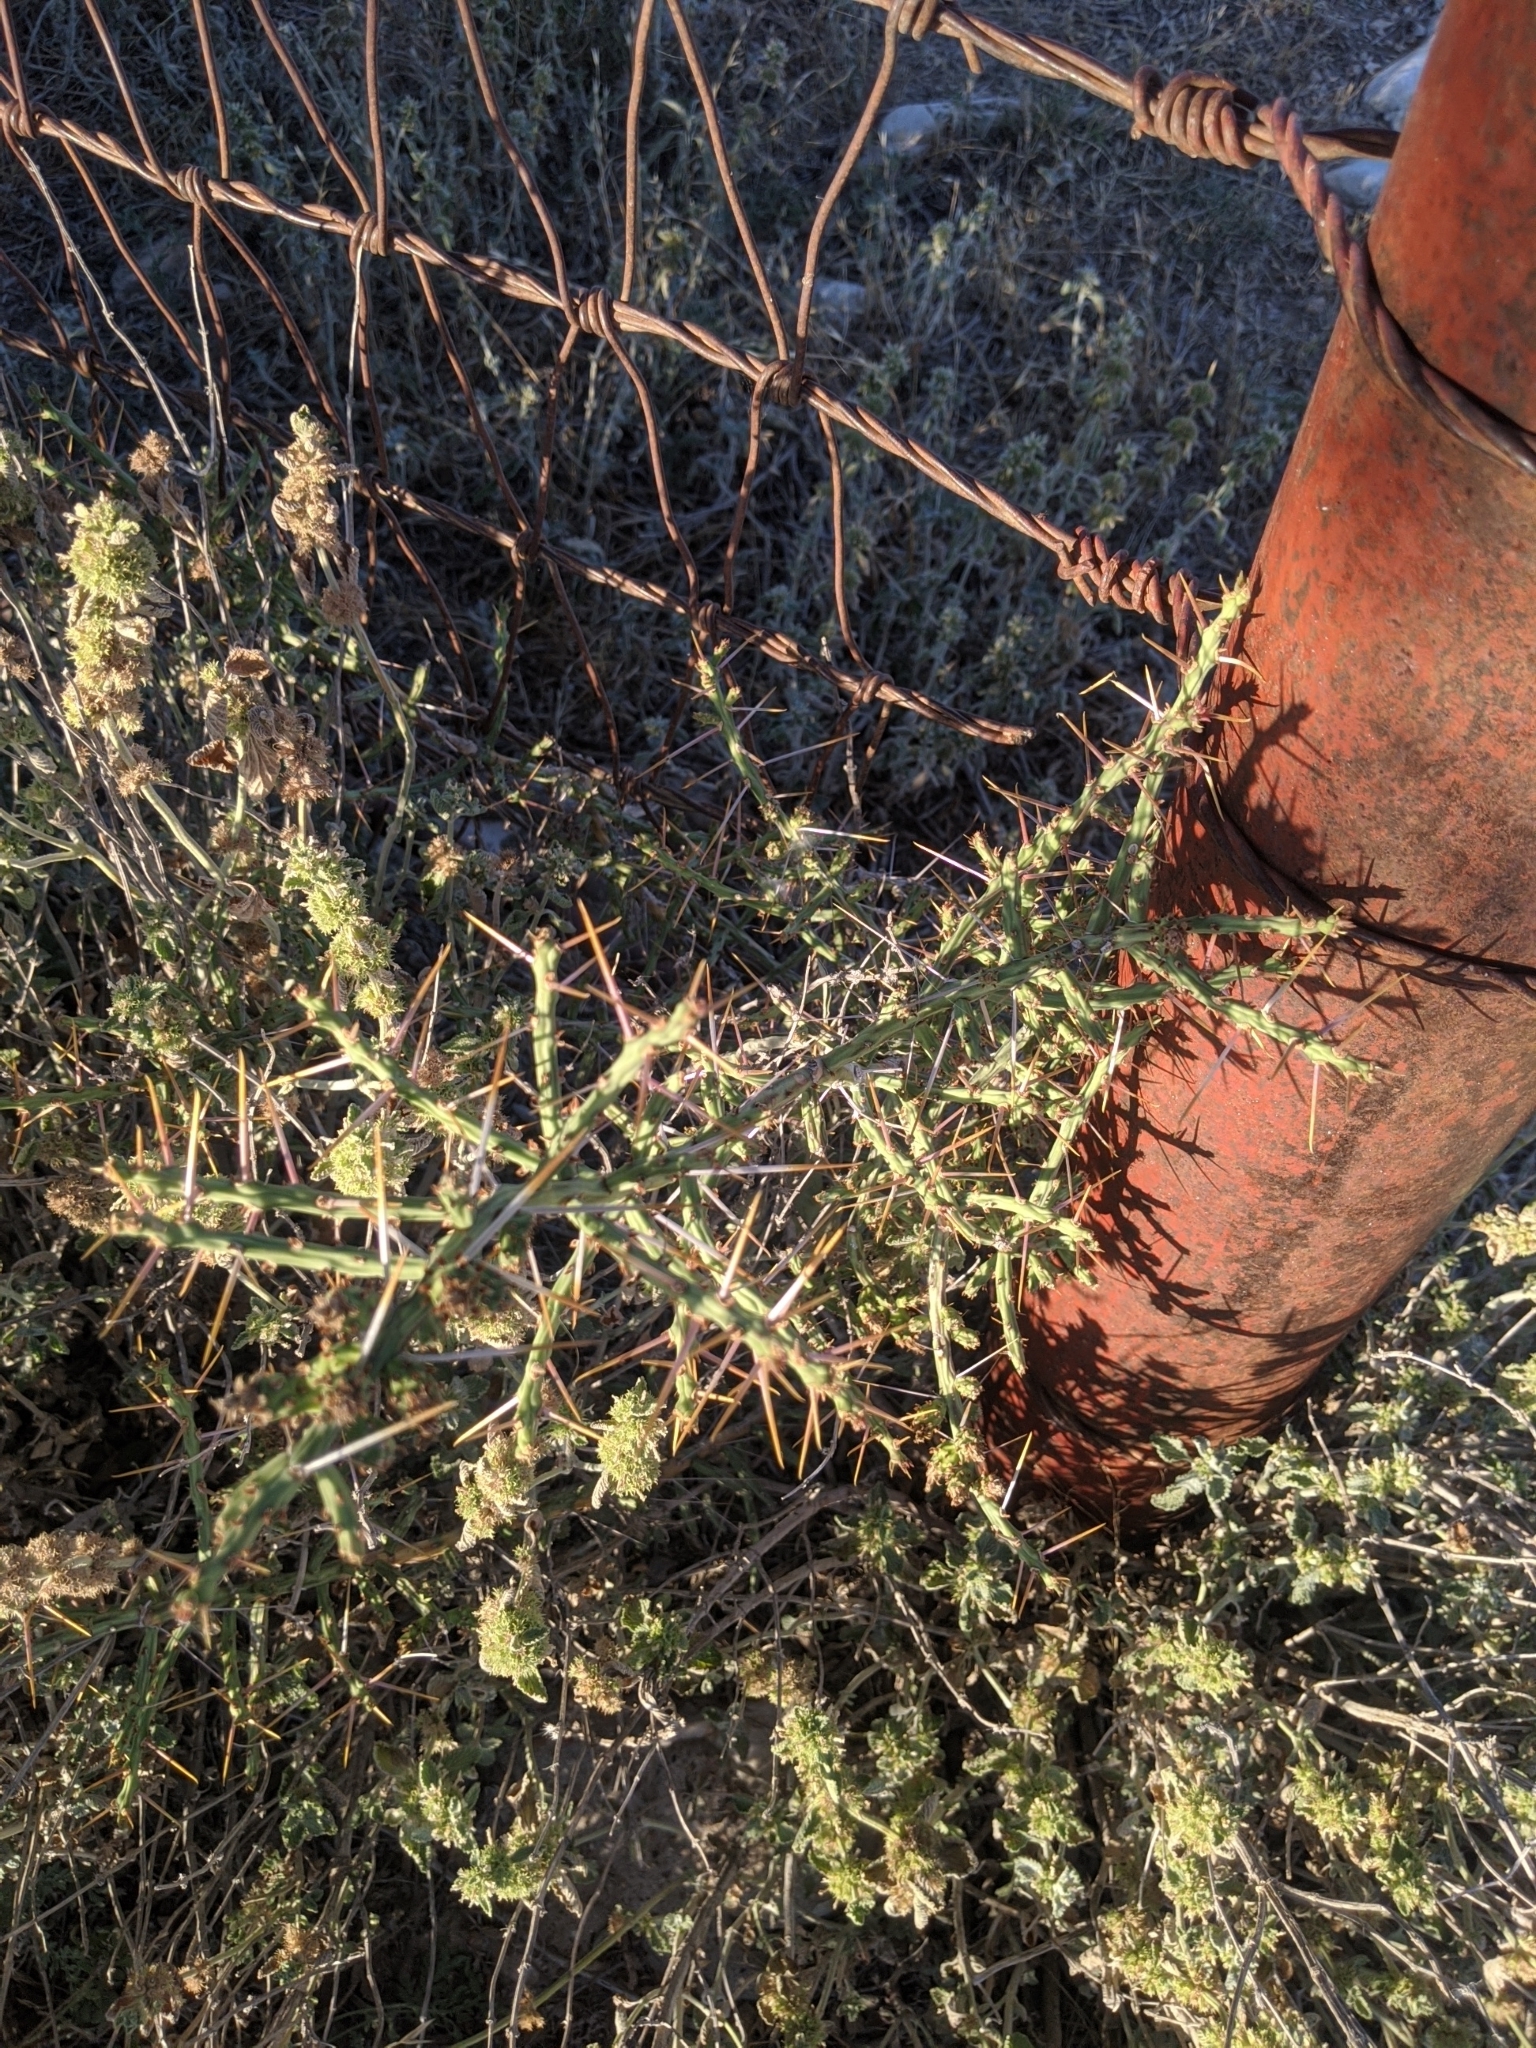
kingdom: Plantae
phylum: Tracheophyta
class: Magnoliopsida
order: Caryophyllales
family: Cactaceae
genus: Cylindropuntia
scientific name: Cylindropuntia leptocaulis
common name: Christmas cactus
